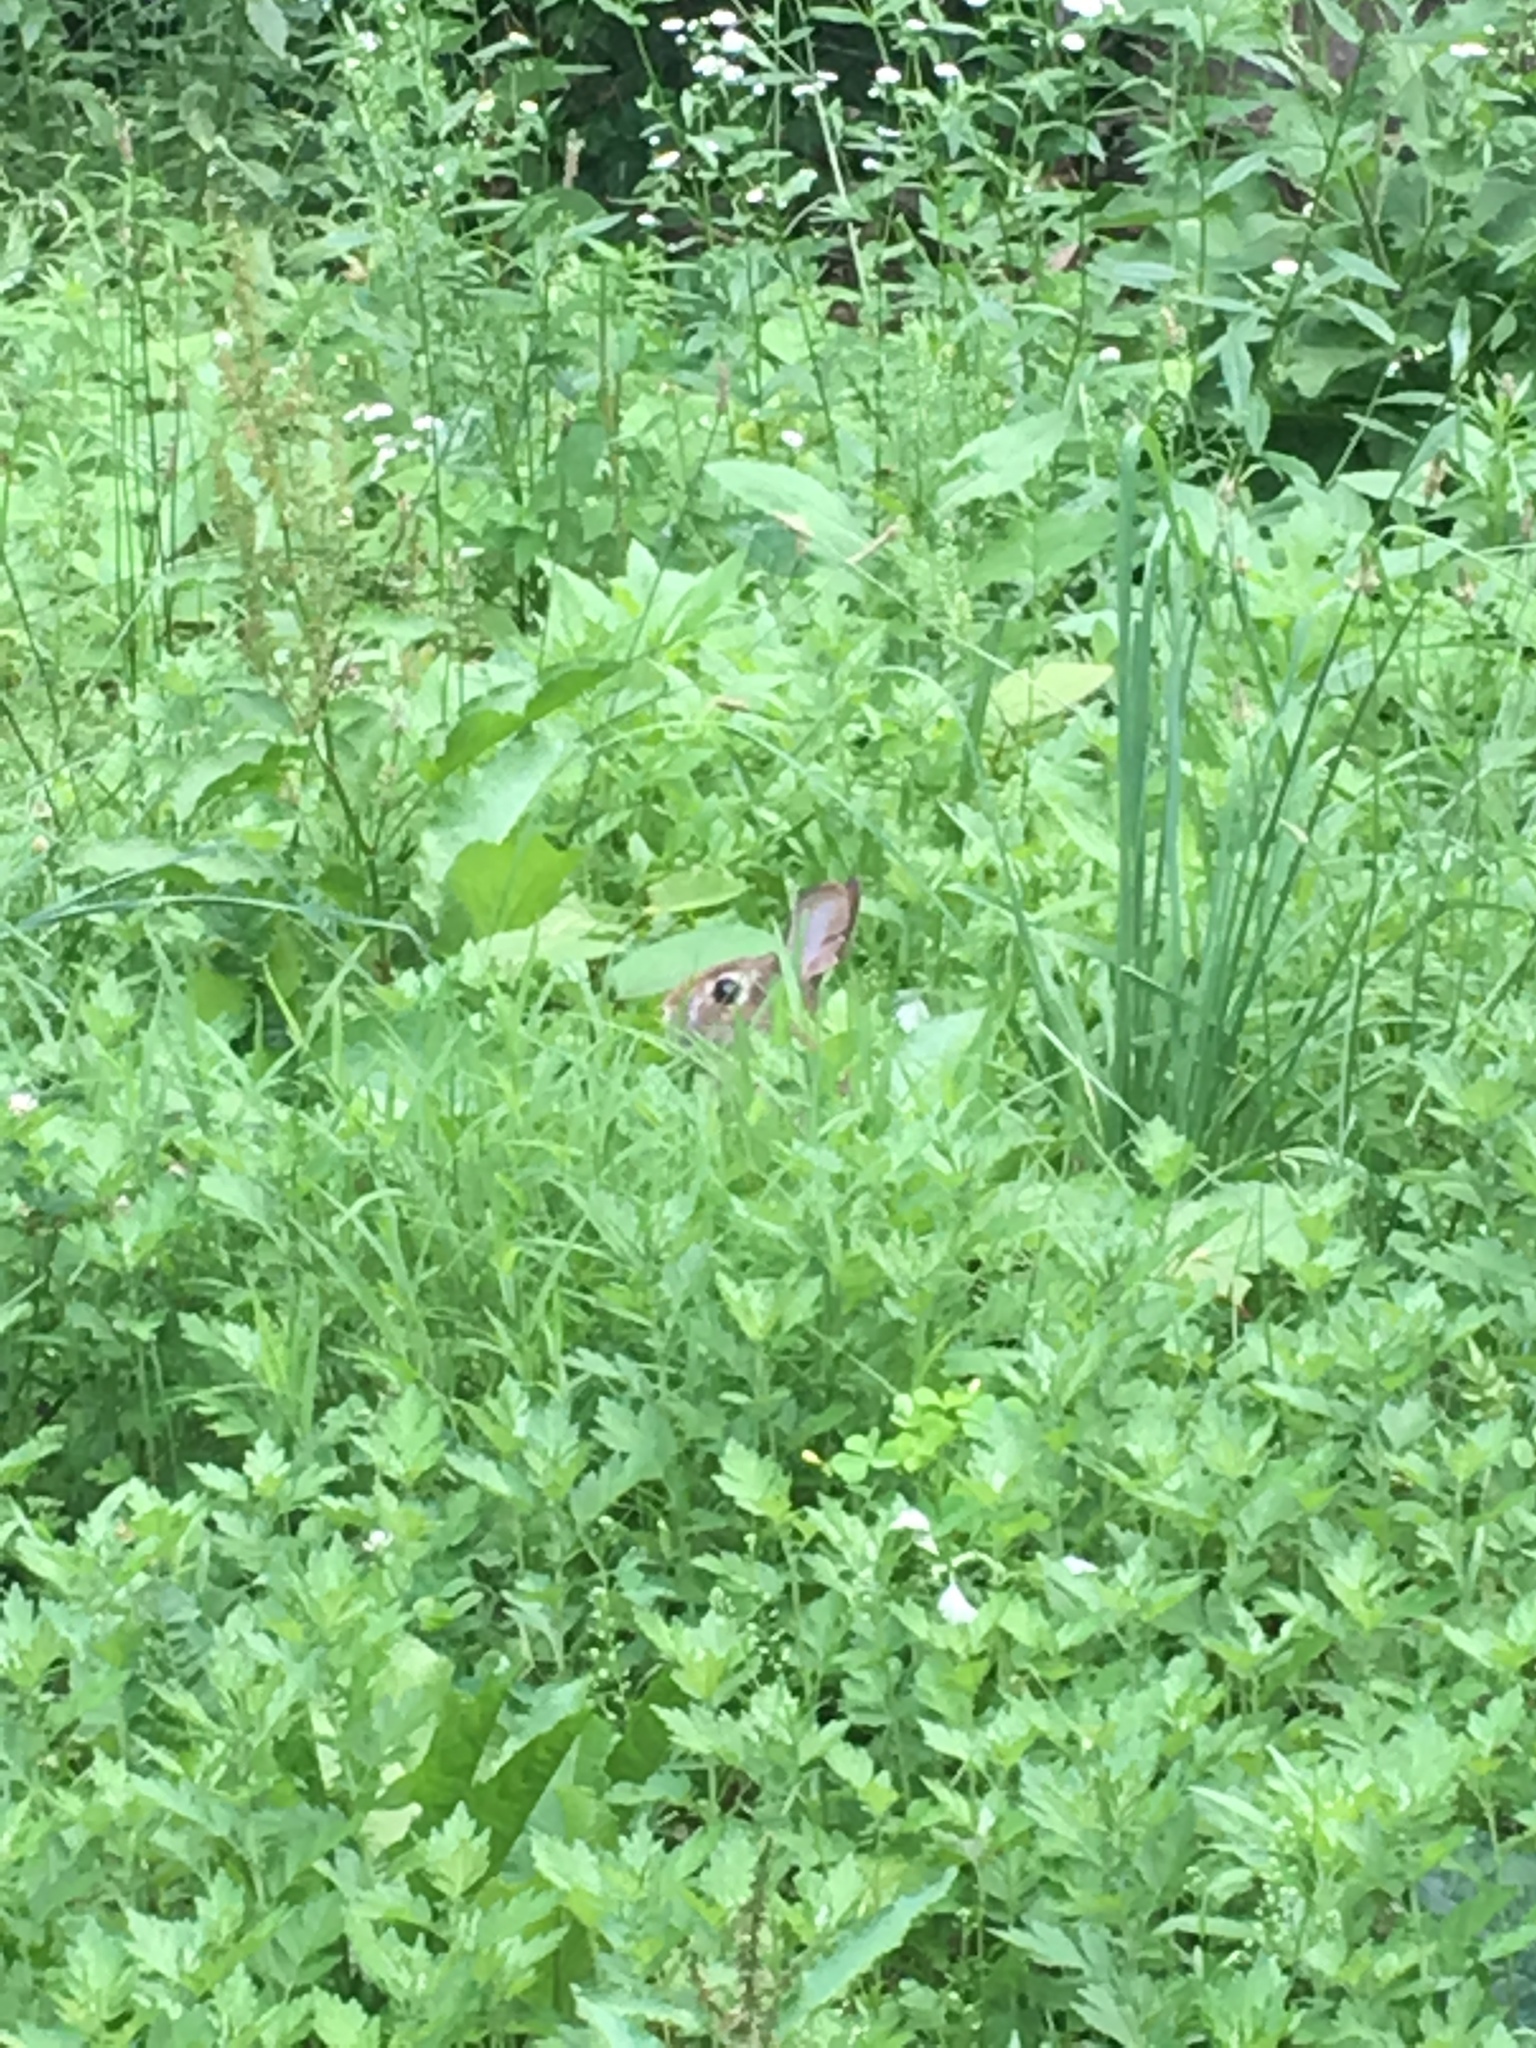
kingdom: Animalia
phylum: Chordata
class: Mammalia
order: Lagomorpha
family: Leporidae
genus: Sylvilagus
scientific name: Sylvilagus floridanus
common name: Eastern cottontail
